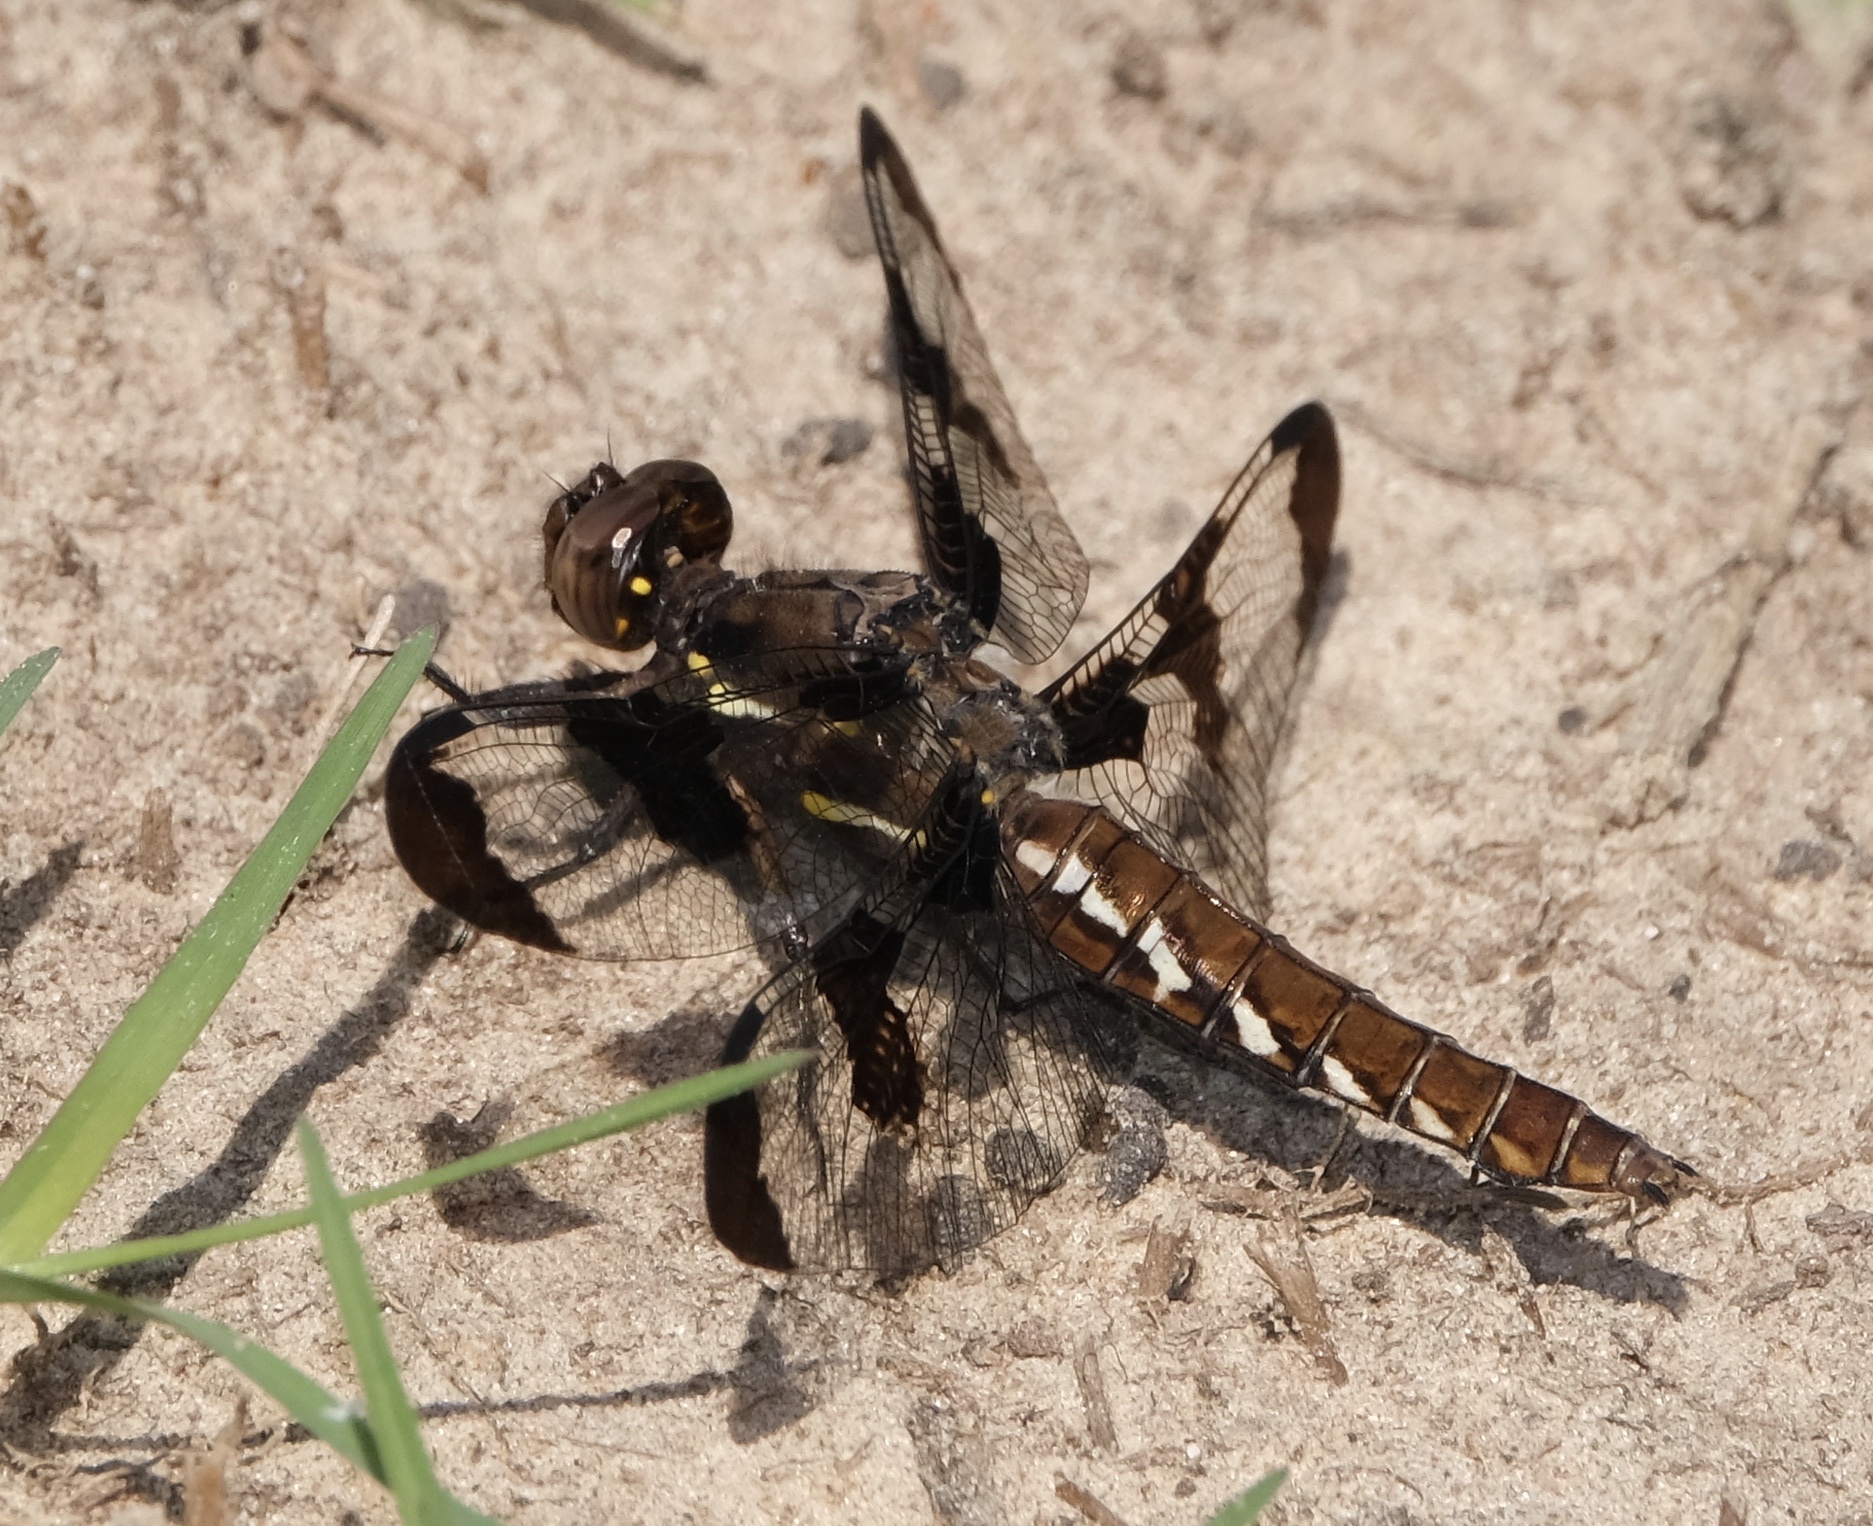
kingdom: Animalia
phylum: Arthropoda
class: Insecta
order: Odonata
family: Libellulidae
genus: Plathemis
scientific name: Plathemis lydia
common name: Common whitetail
